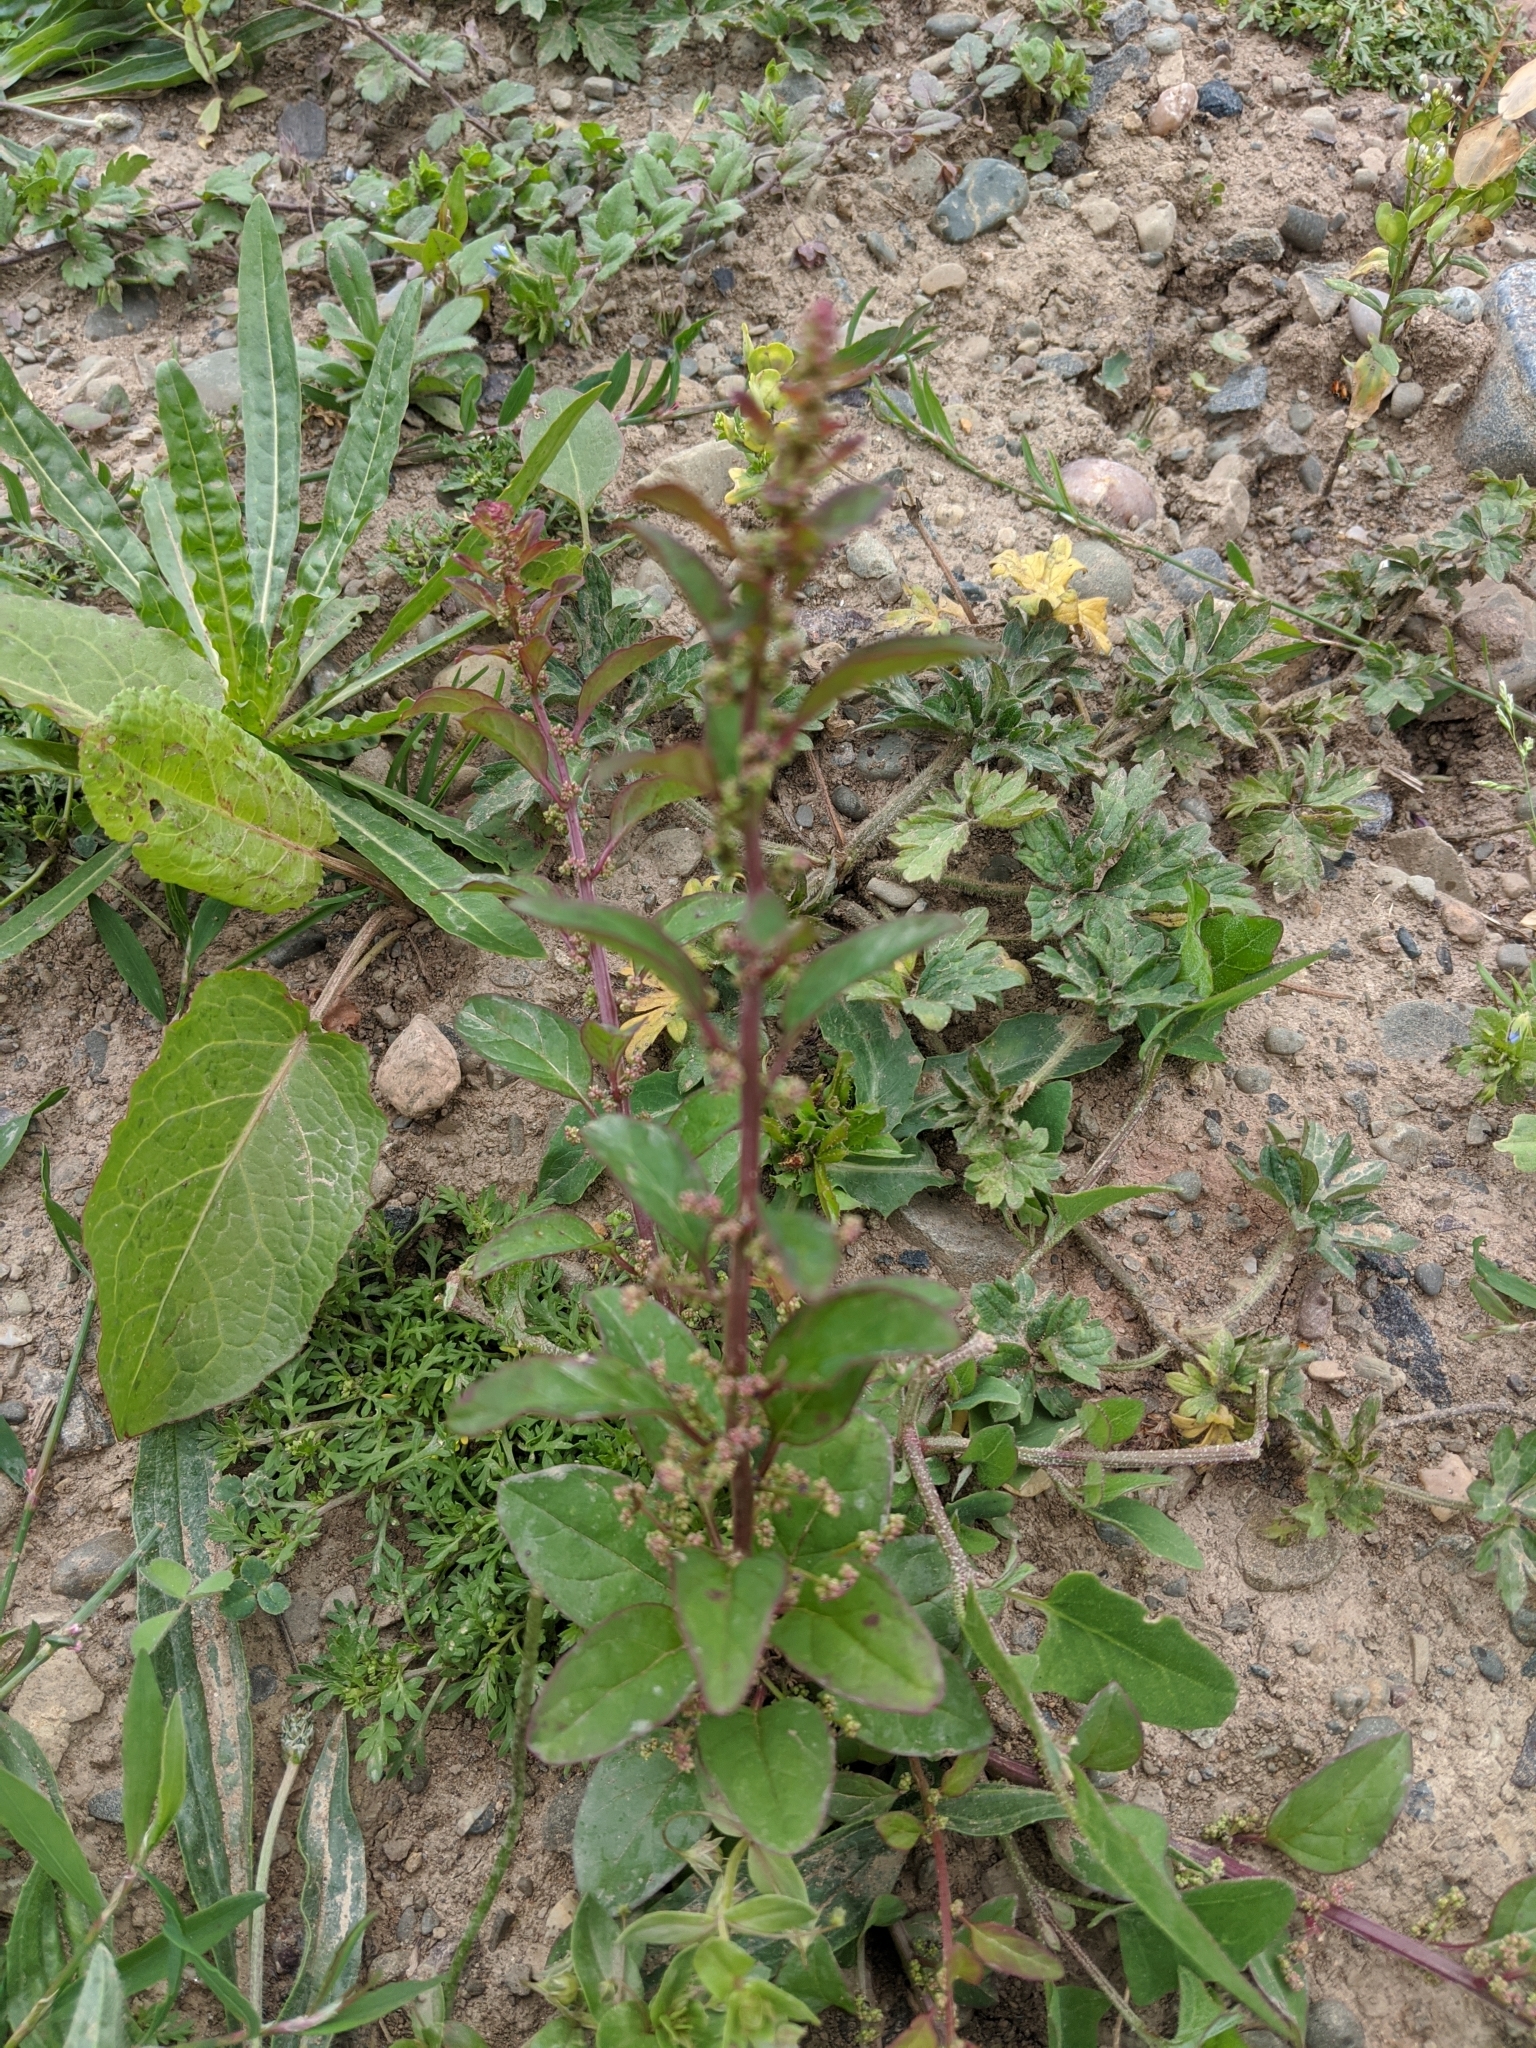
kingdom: Plantae
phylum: Tracheophyta
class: Magnoliopsida
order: Caryophyllales
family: Amaranthaceae
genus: Lipandra
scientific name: Lipandra polysperma
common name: Many-seed goosefoot
